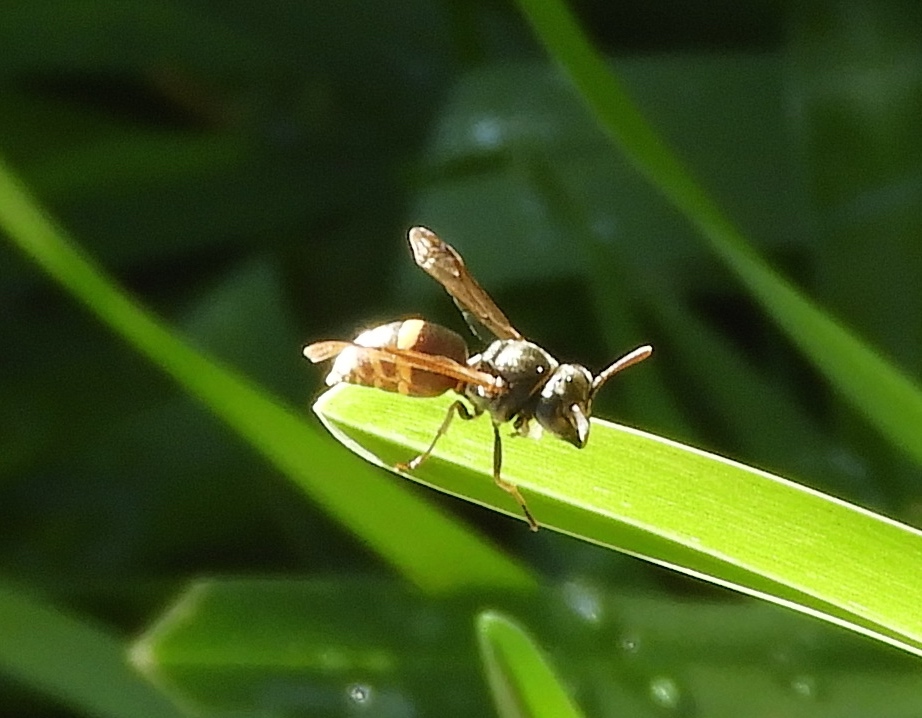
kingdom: Animalia
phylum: Arthropoda
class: Insecta
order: Hymenoptera
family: Vespidae
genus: Brachygastra
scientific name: Brachygastra azteca
